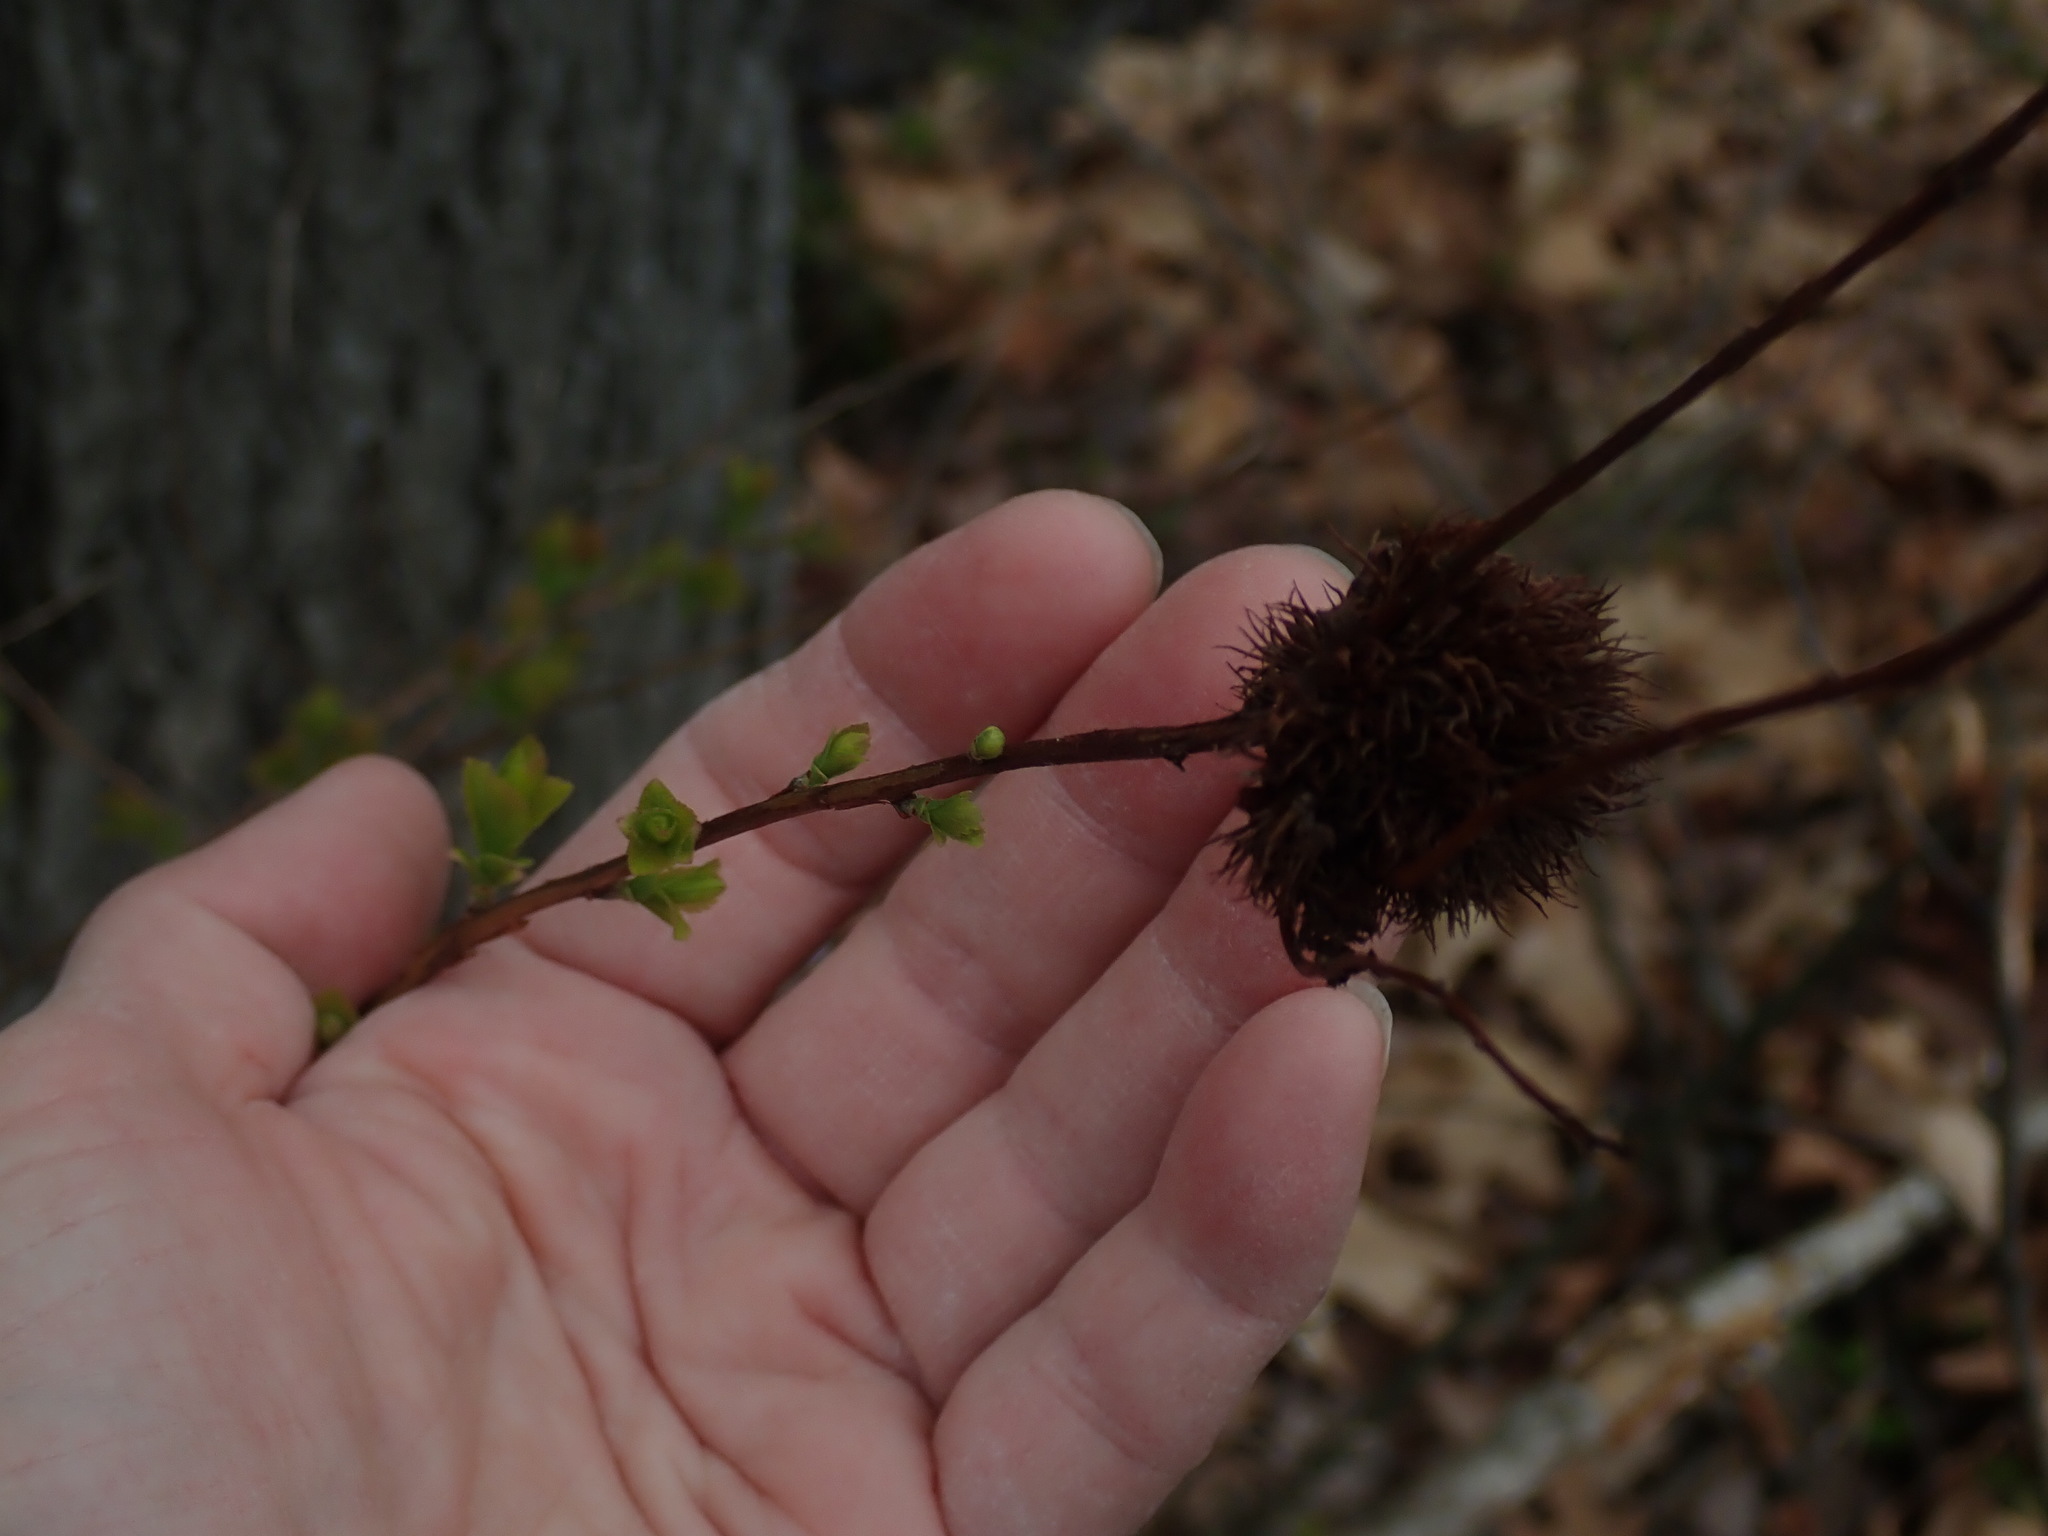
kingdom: Animalia
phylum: Arthropoda
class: Insecta
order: Diptera
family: Cecidomyiidae
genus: Clinodiplosis
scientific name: Clinodiplosis lappa
